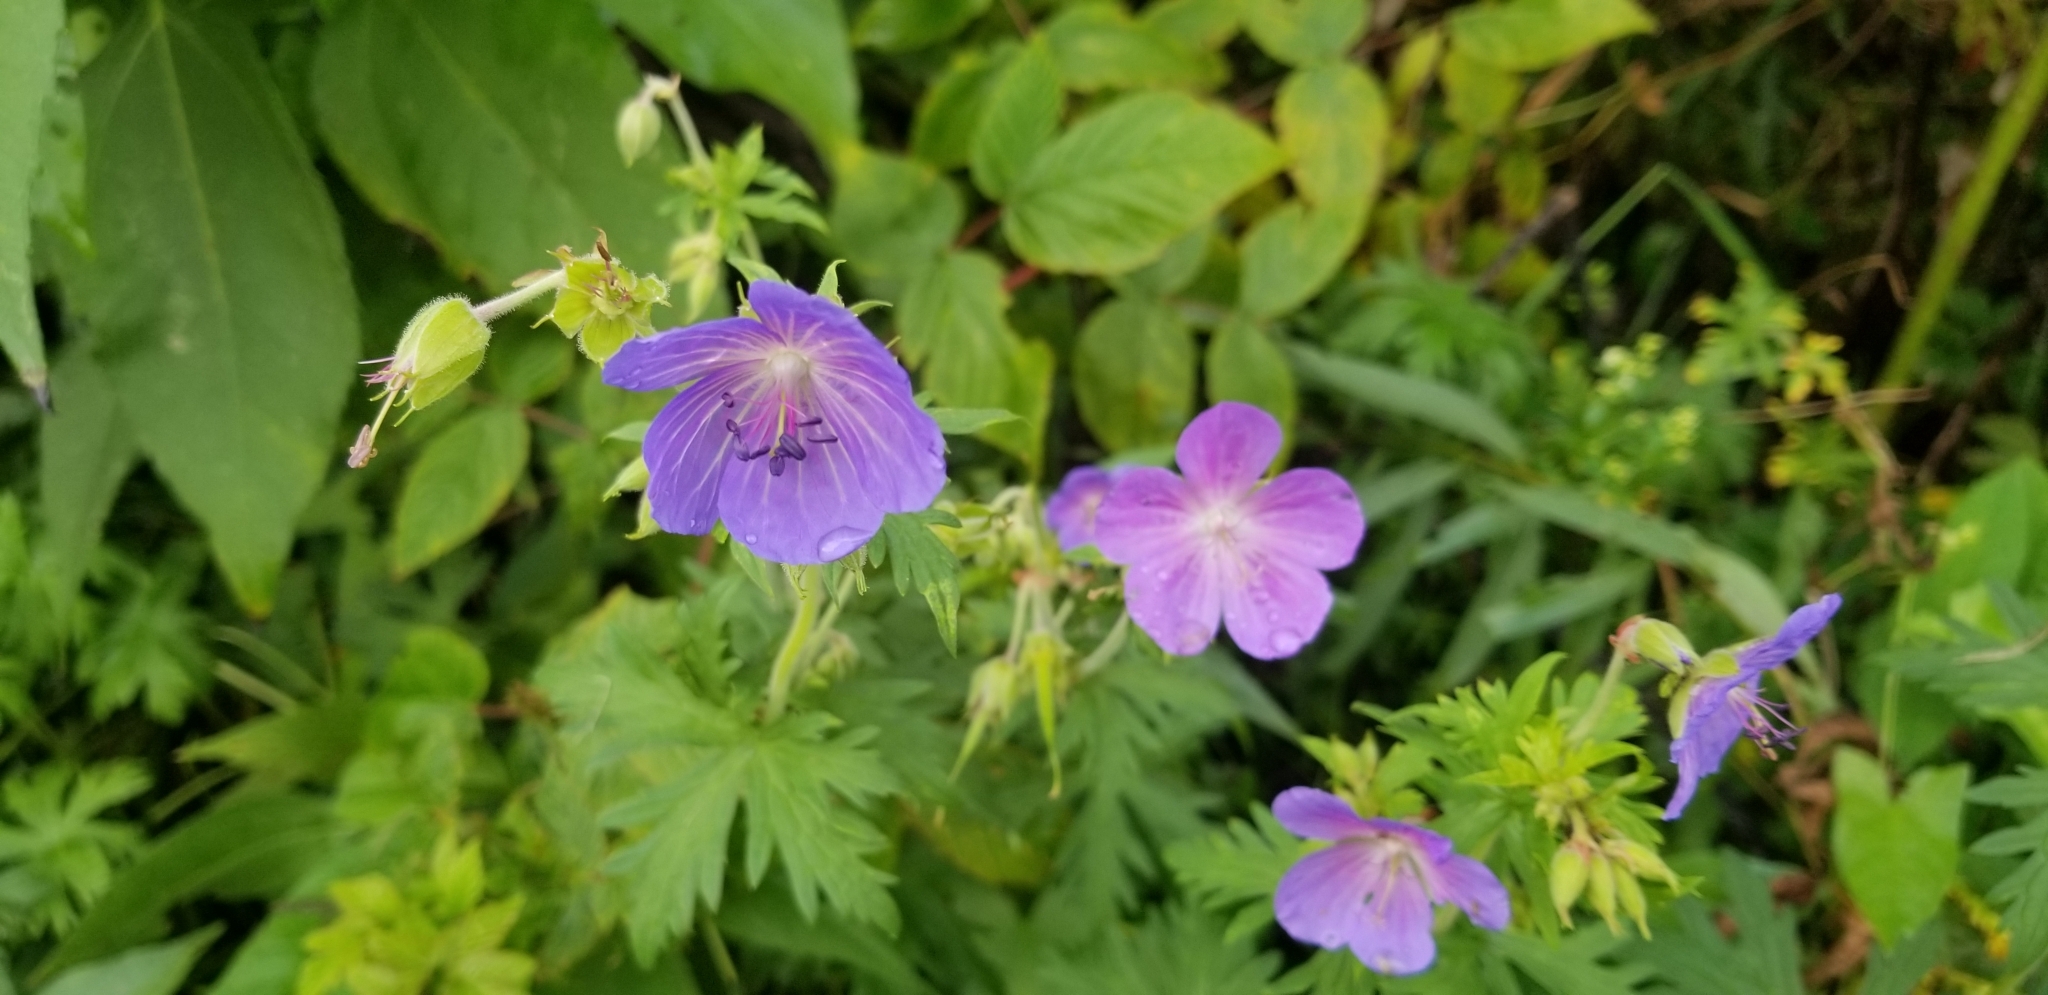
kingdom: Plantae
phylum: Tracheophyta
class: Magnoliopsida
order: Geraniales
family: Geraniaceae
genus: Geranium
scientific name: Geranium pratense
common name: Meadow crane's-bill
